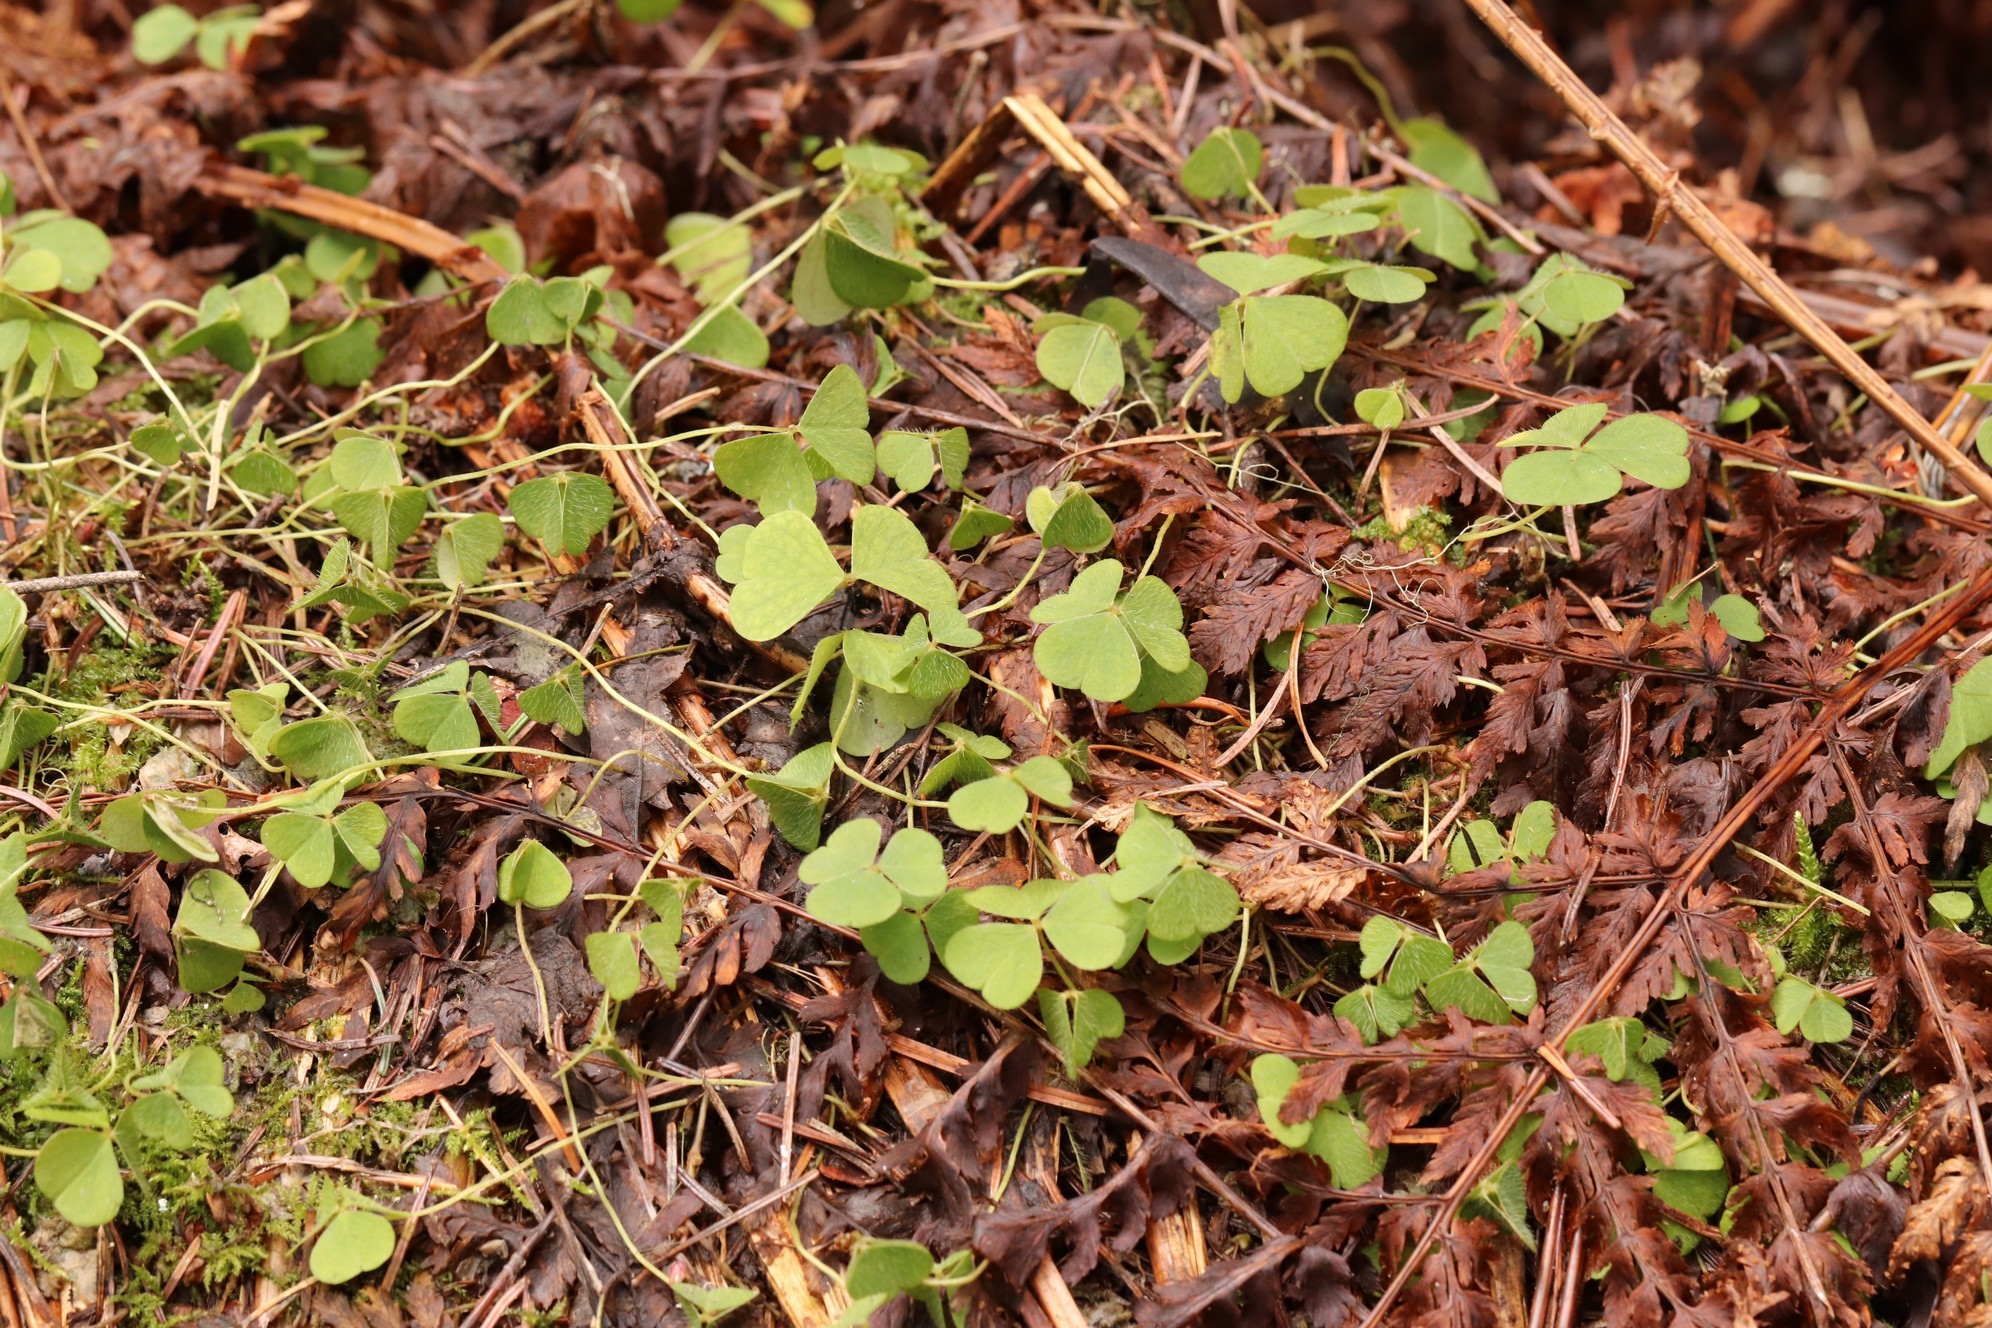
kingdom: Plantae
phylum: Tracheophyta
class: Magnoliopsida
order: Oxalidales
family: Oxalidaceae
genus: Oxalis
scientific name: Oxalis acetosella
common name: Wood-sorrel
